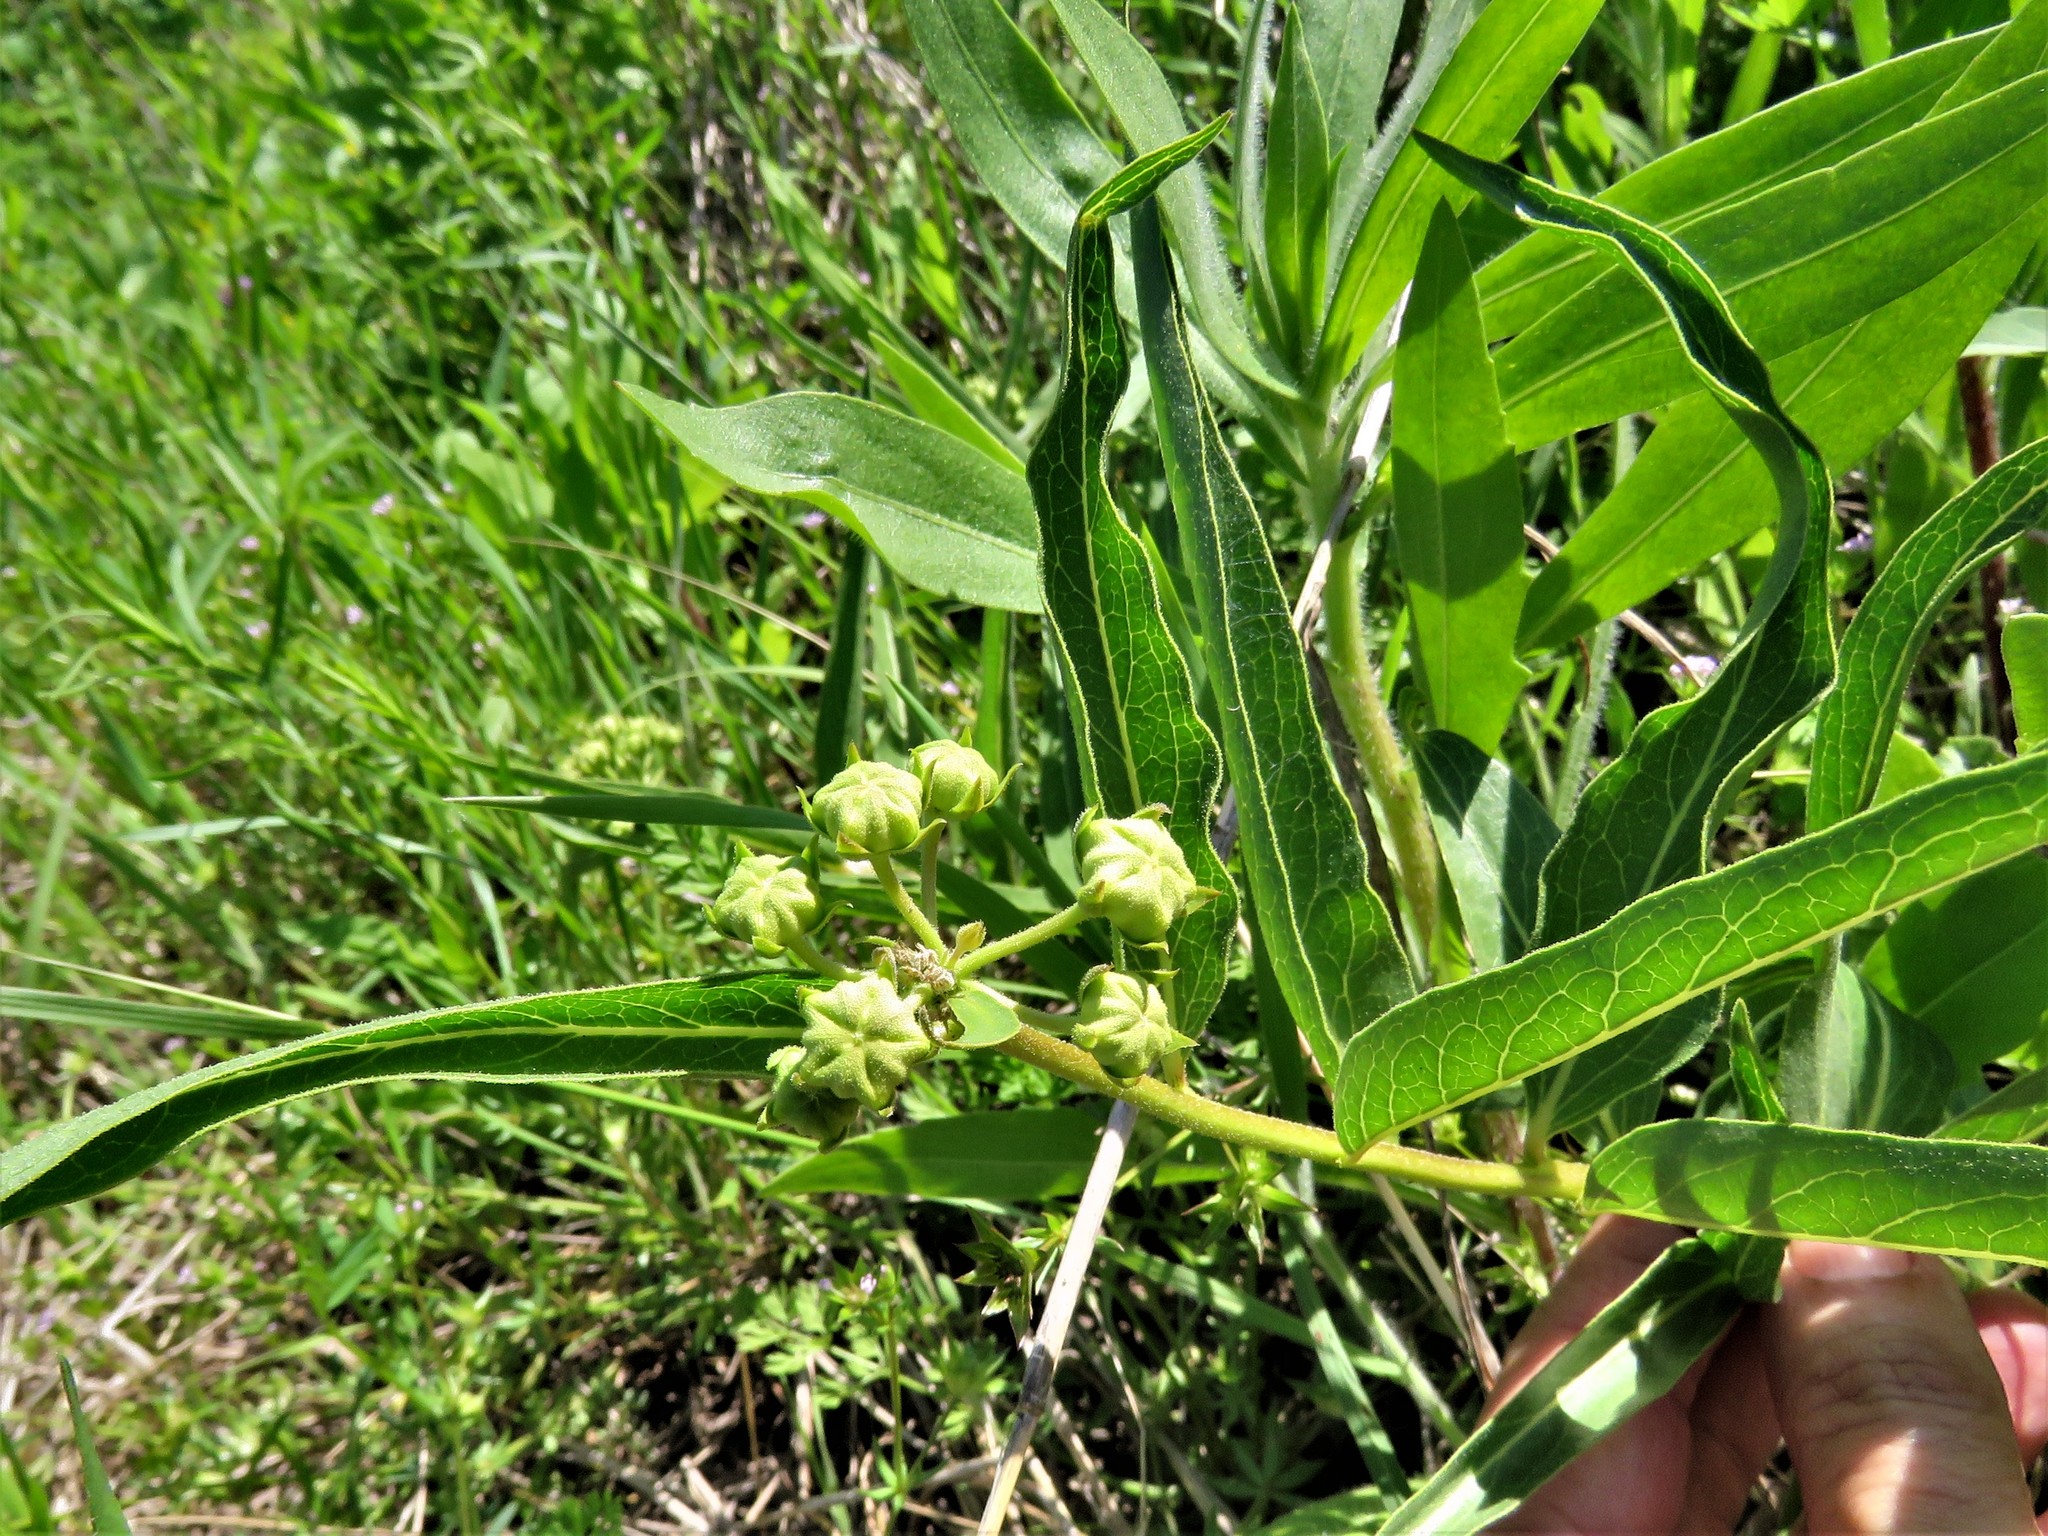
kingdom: Plantae
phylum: Tracheophyta
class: Magnoliopsida
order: Gentianales
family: Apocynaceae
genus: Asclepias
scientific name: Asclepias asperula
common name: Antelope horns
